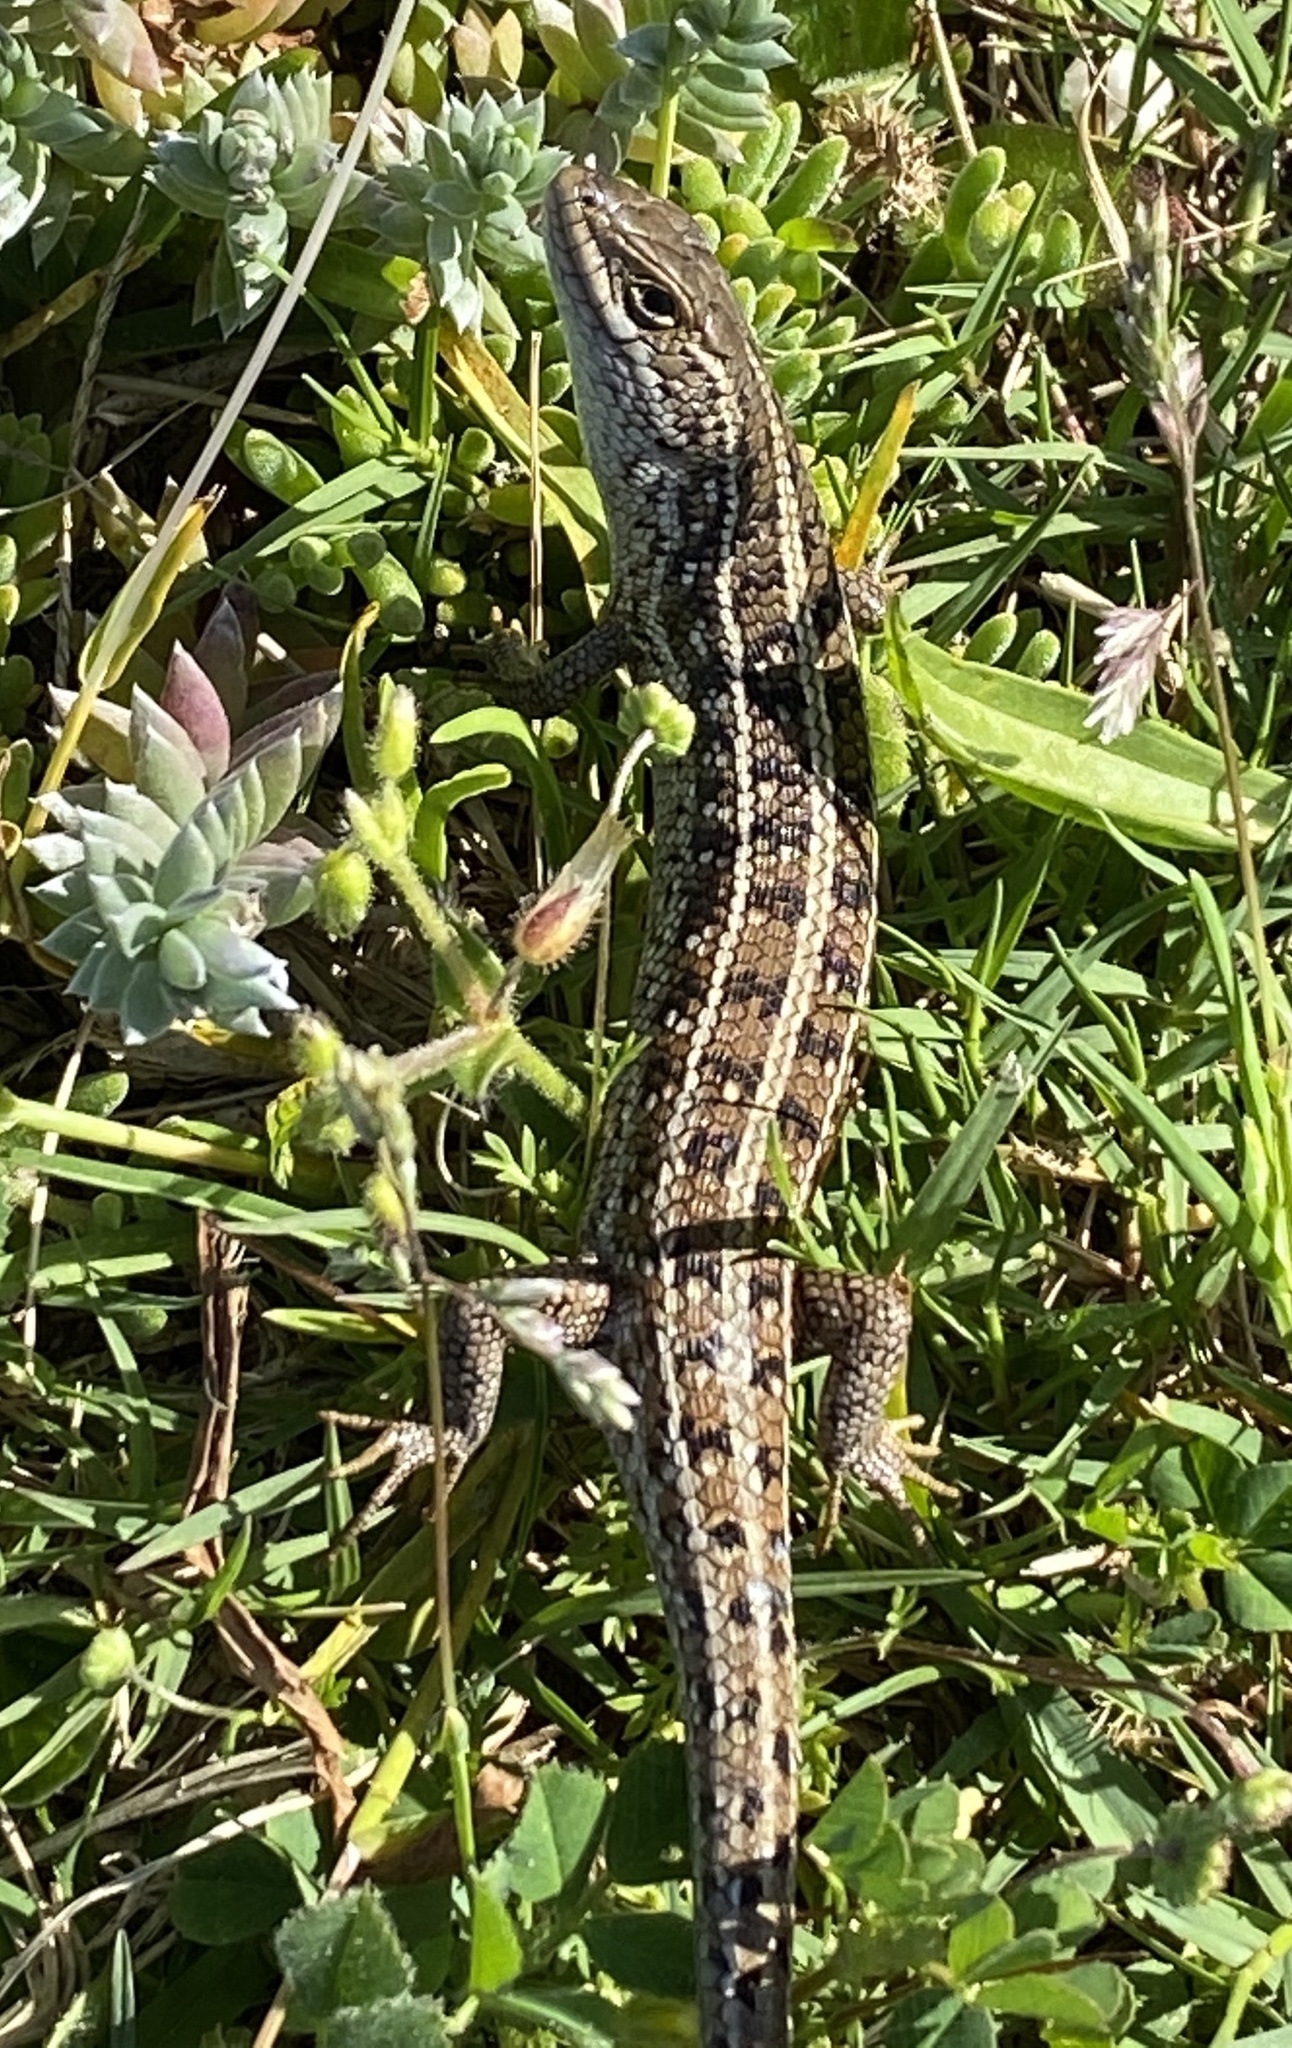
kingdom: Animalia
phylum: Chordata
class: Squamata
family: Scincidae
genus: Trachylepis
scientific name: Trachylepis capensis
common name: Cape skink
